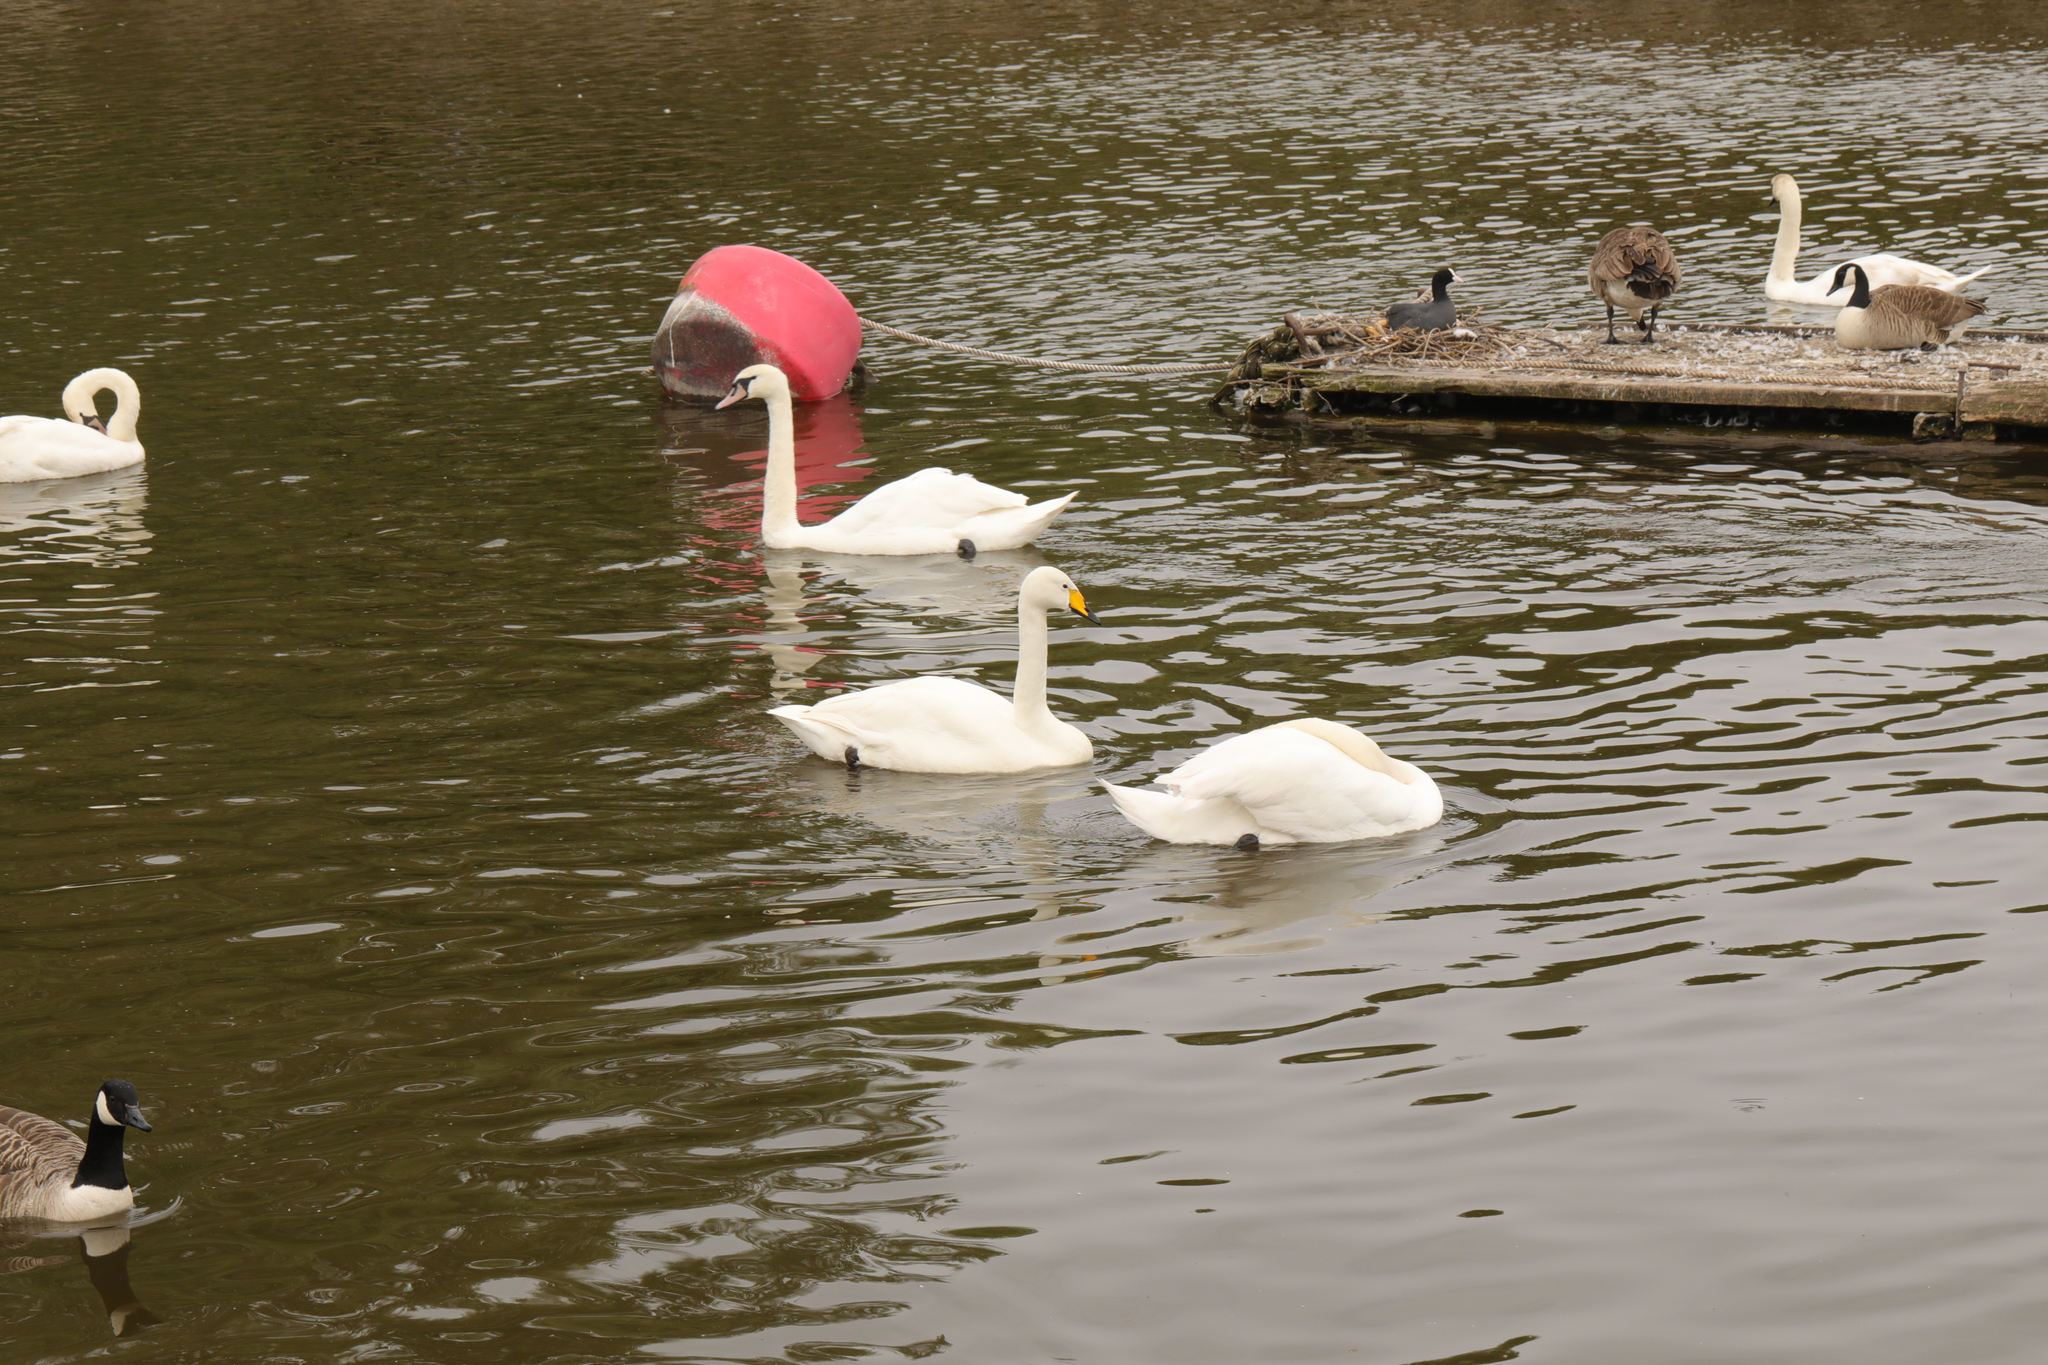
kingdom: Animalia
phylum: Chordata
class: Aves
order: Anseriformes
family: Anatidae
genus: Cygnus
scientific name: Cygnus cygnus
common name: Whooper swan
